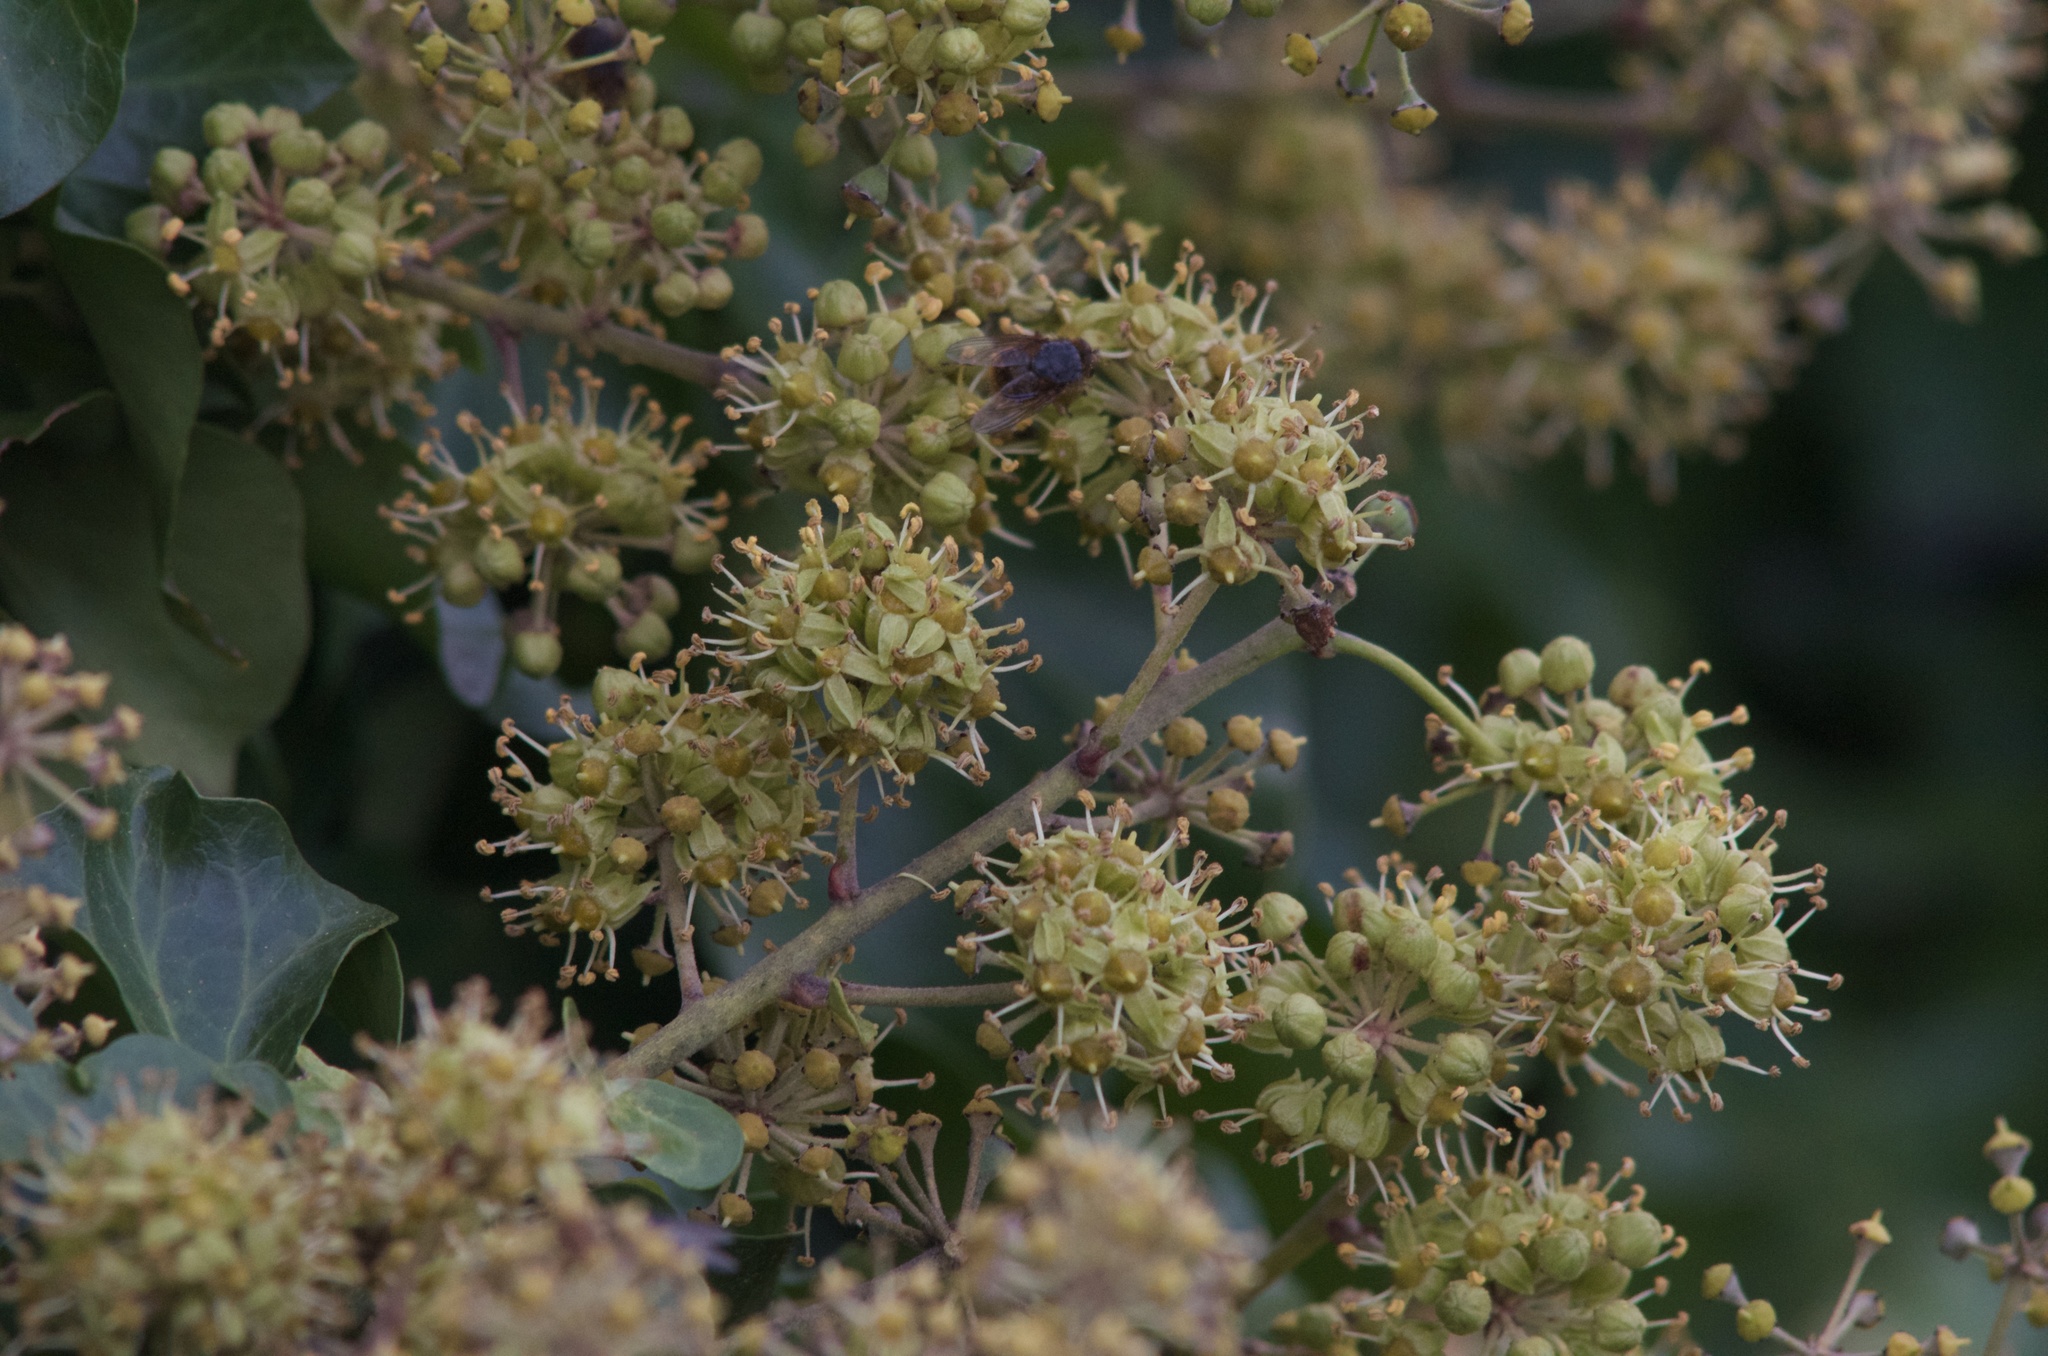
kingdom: Plantae
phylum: Tracheophyta
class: Magnoliopsida
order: Apiales
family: Araliaceae
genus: Hedera
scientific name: Hedera helix
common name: Ivy
